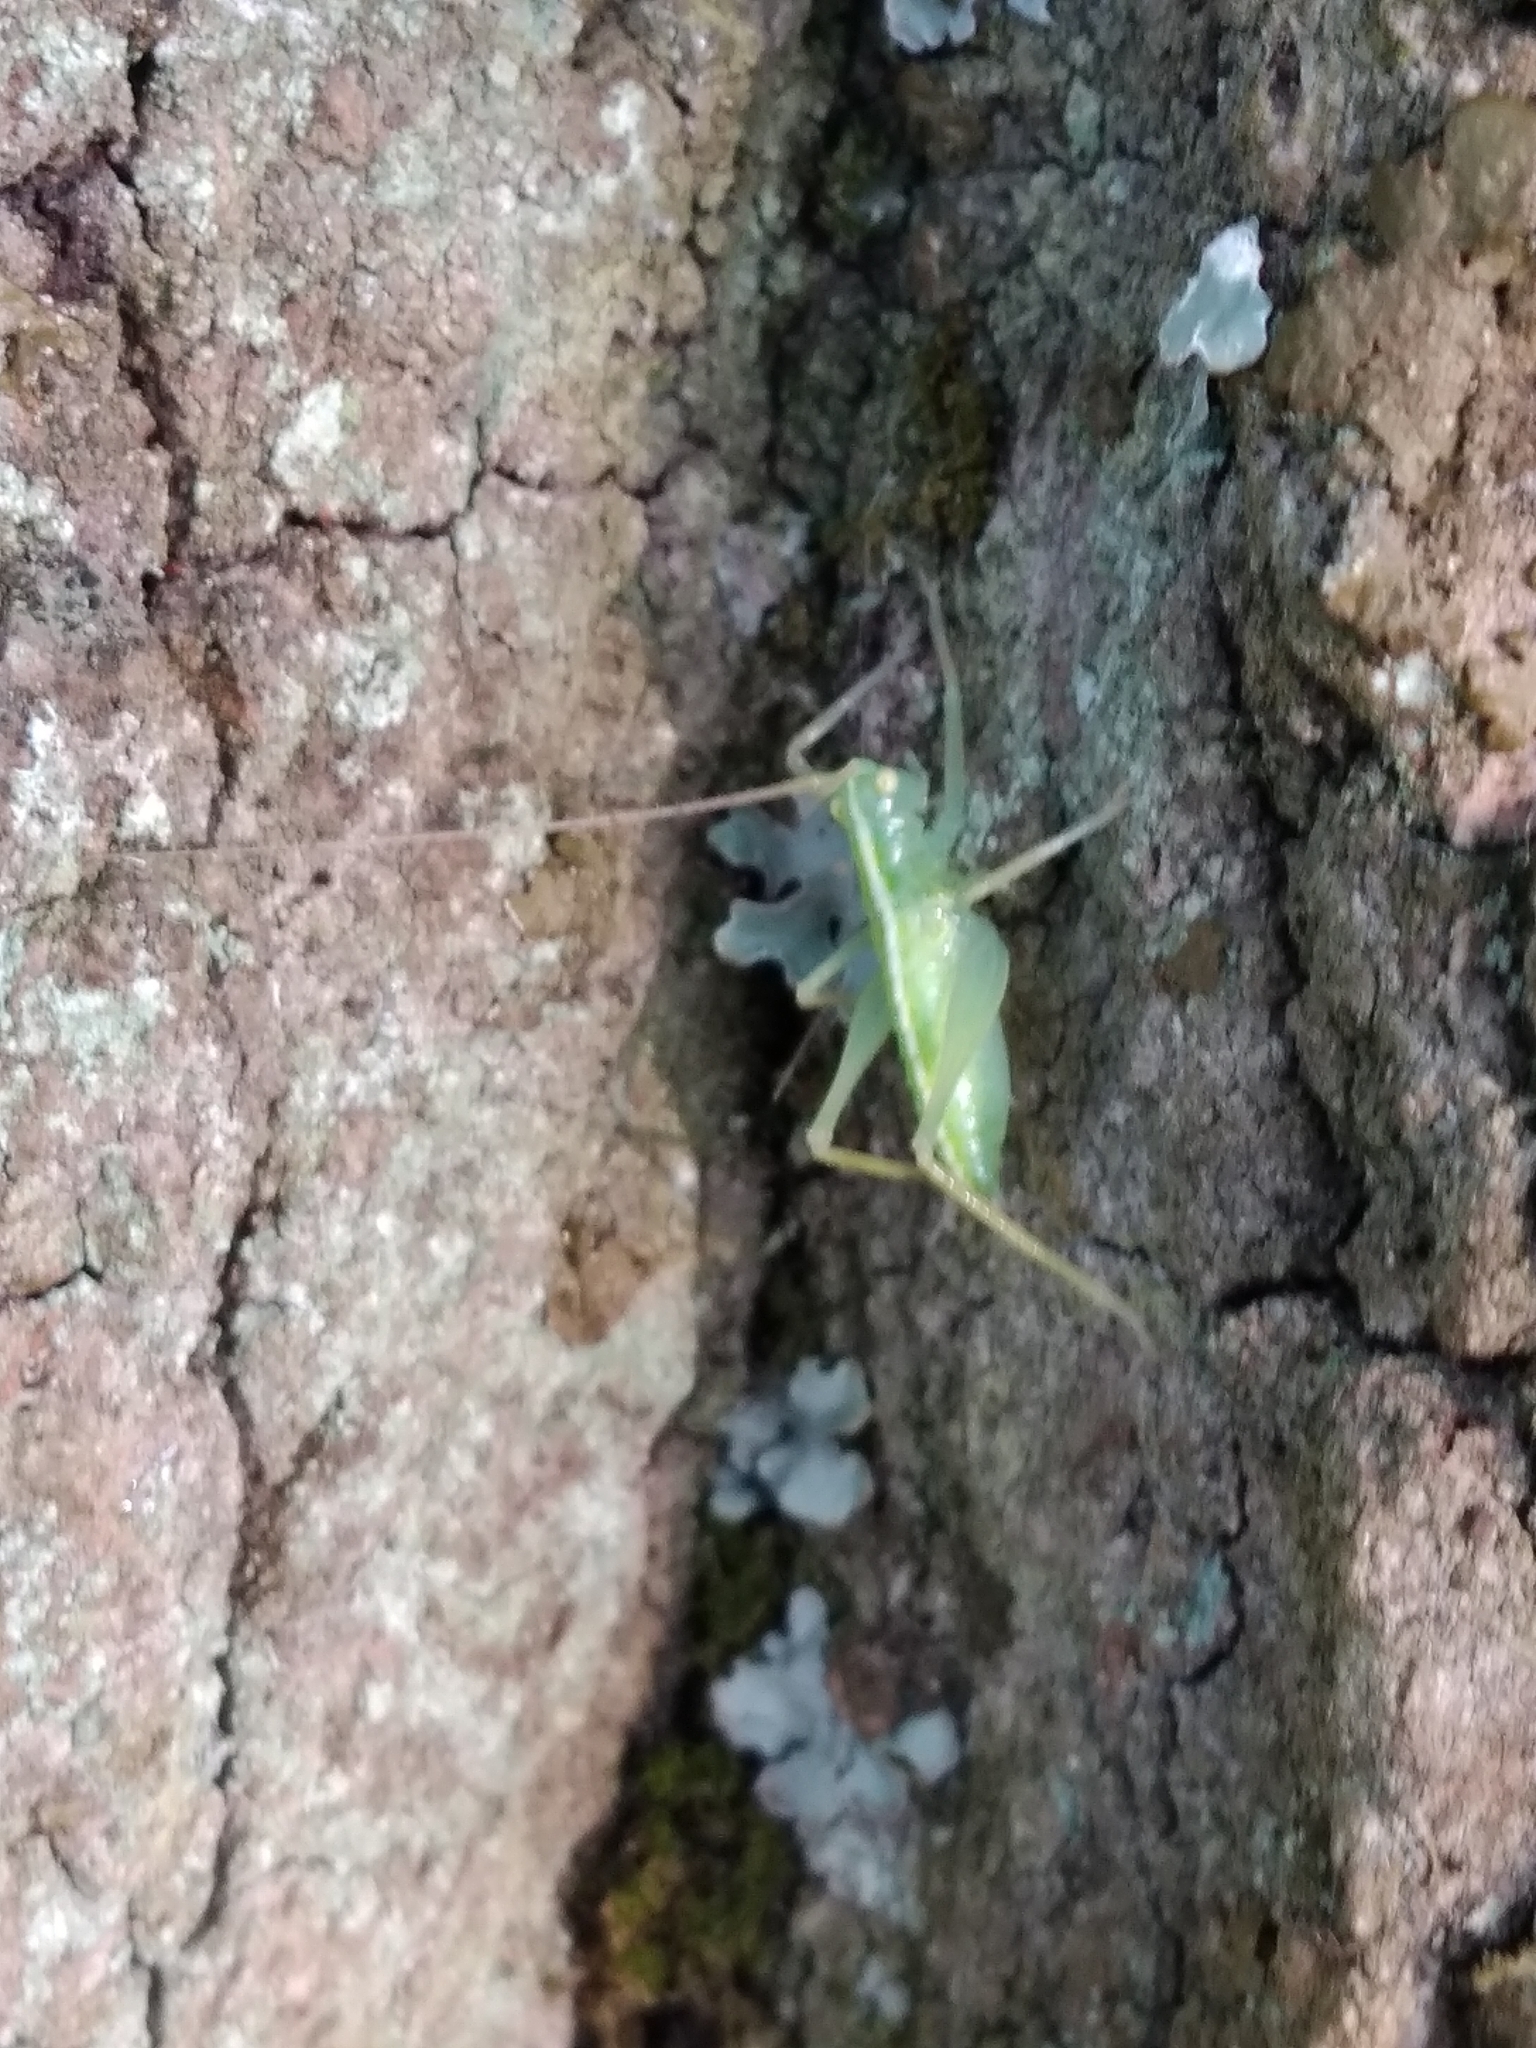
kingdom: Animalia
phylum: Arthropoda
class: Insecta
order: Orthoptera
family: Tettigoniidae
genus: Meconema
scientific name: Meconema meridionale
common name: Southern oak bush-cricket
